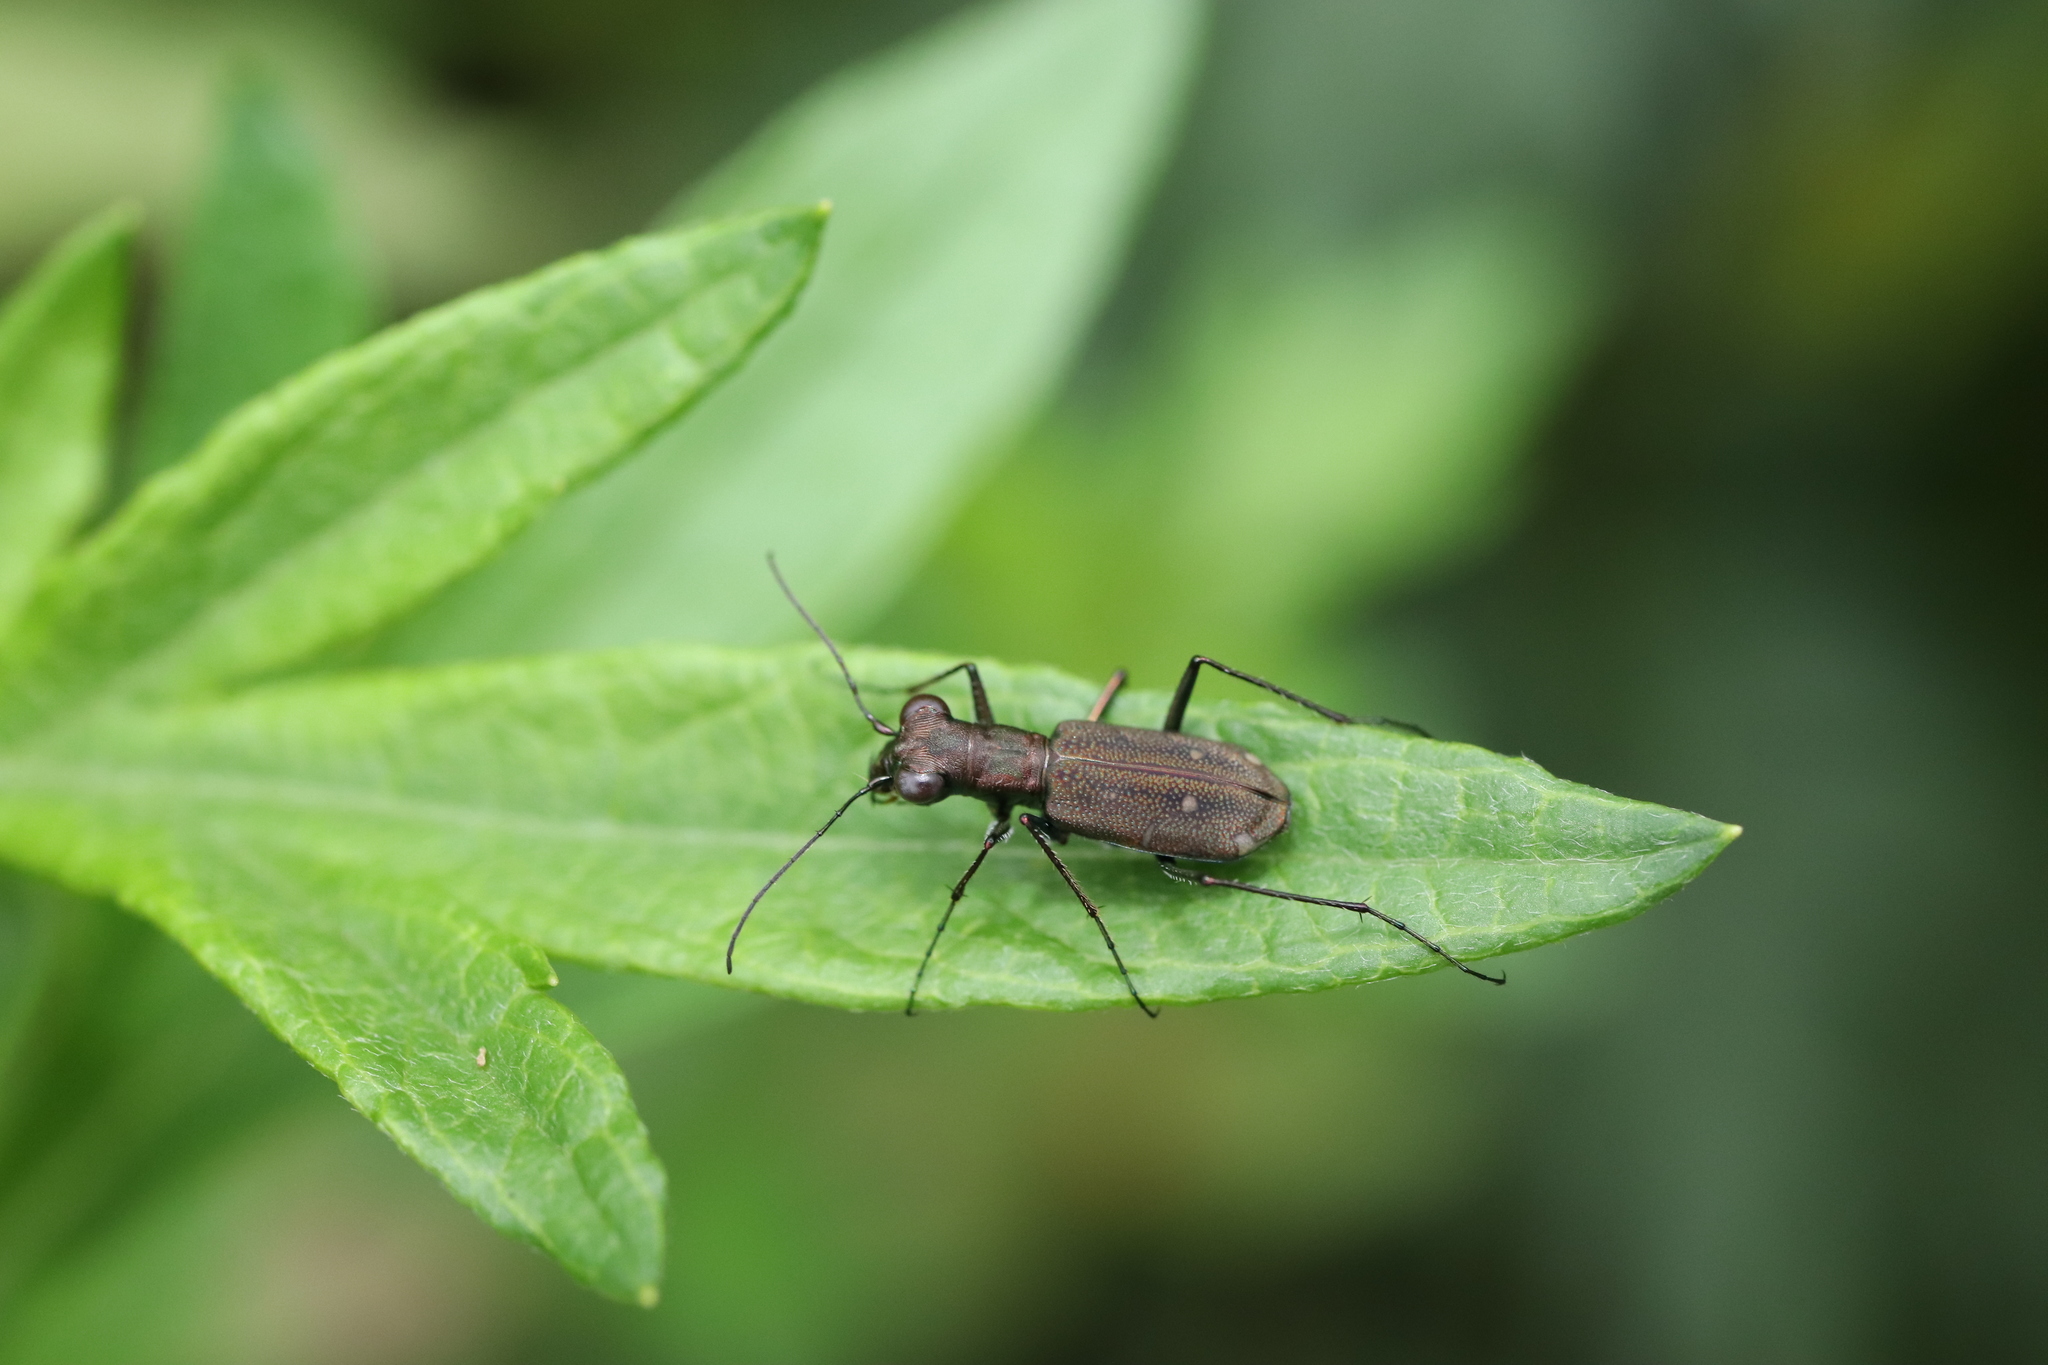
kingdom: Animalia
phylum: Arthropoda
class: Insecta
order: Coleoptera
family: Carabidae
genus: Cylindera
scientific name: Cylindera kaleea
